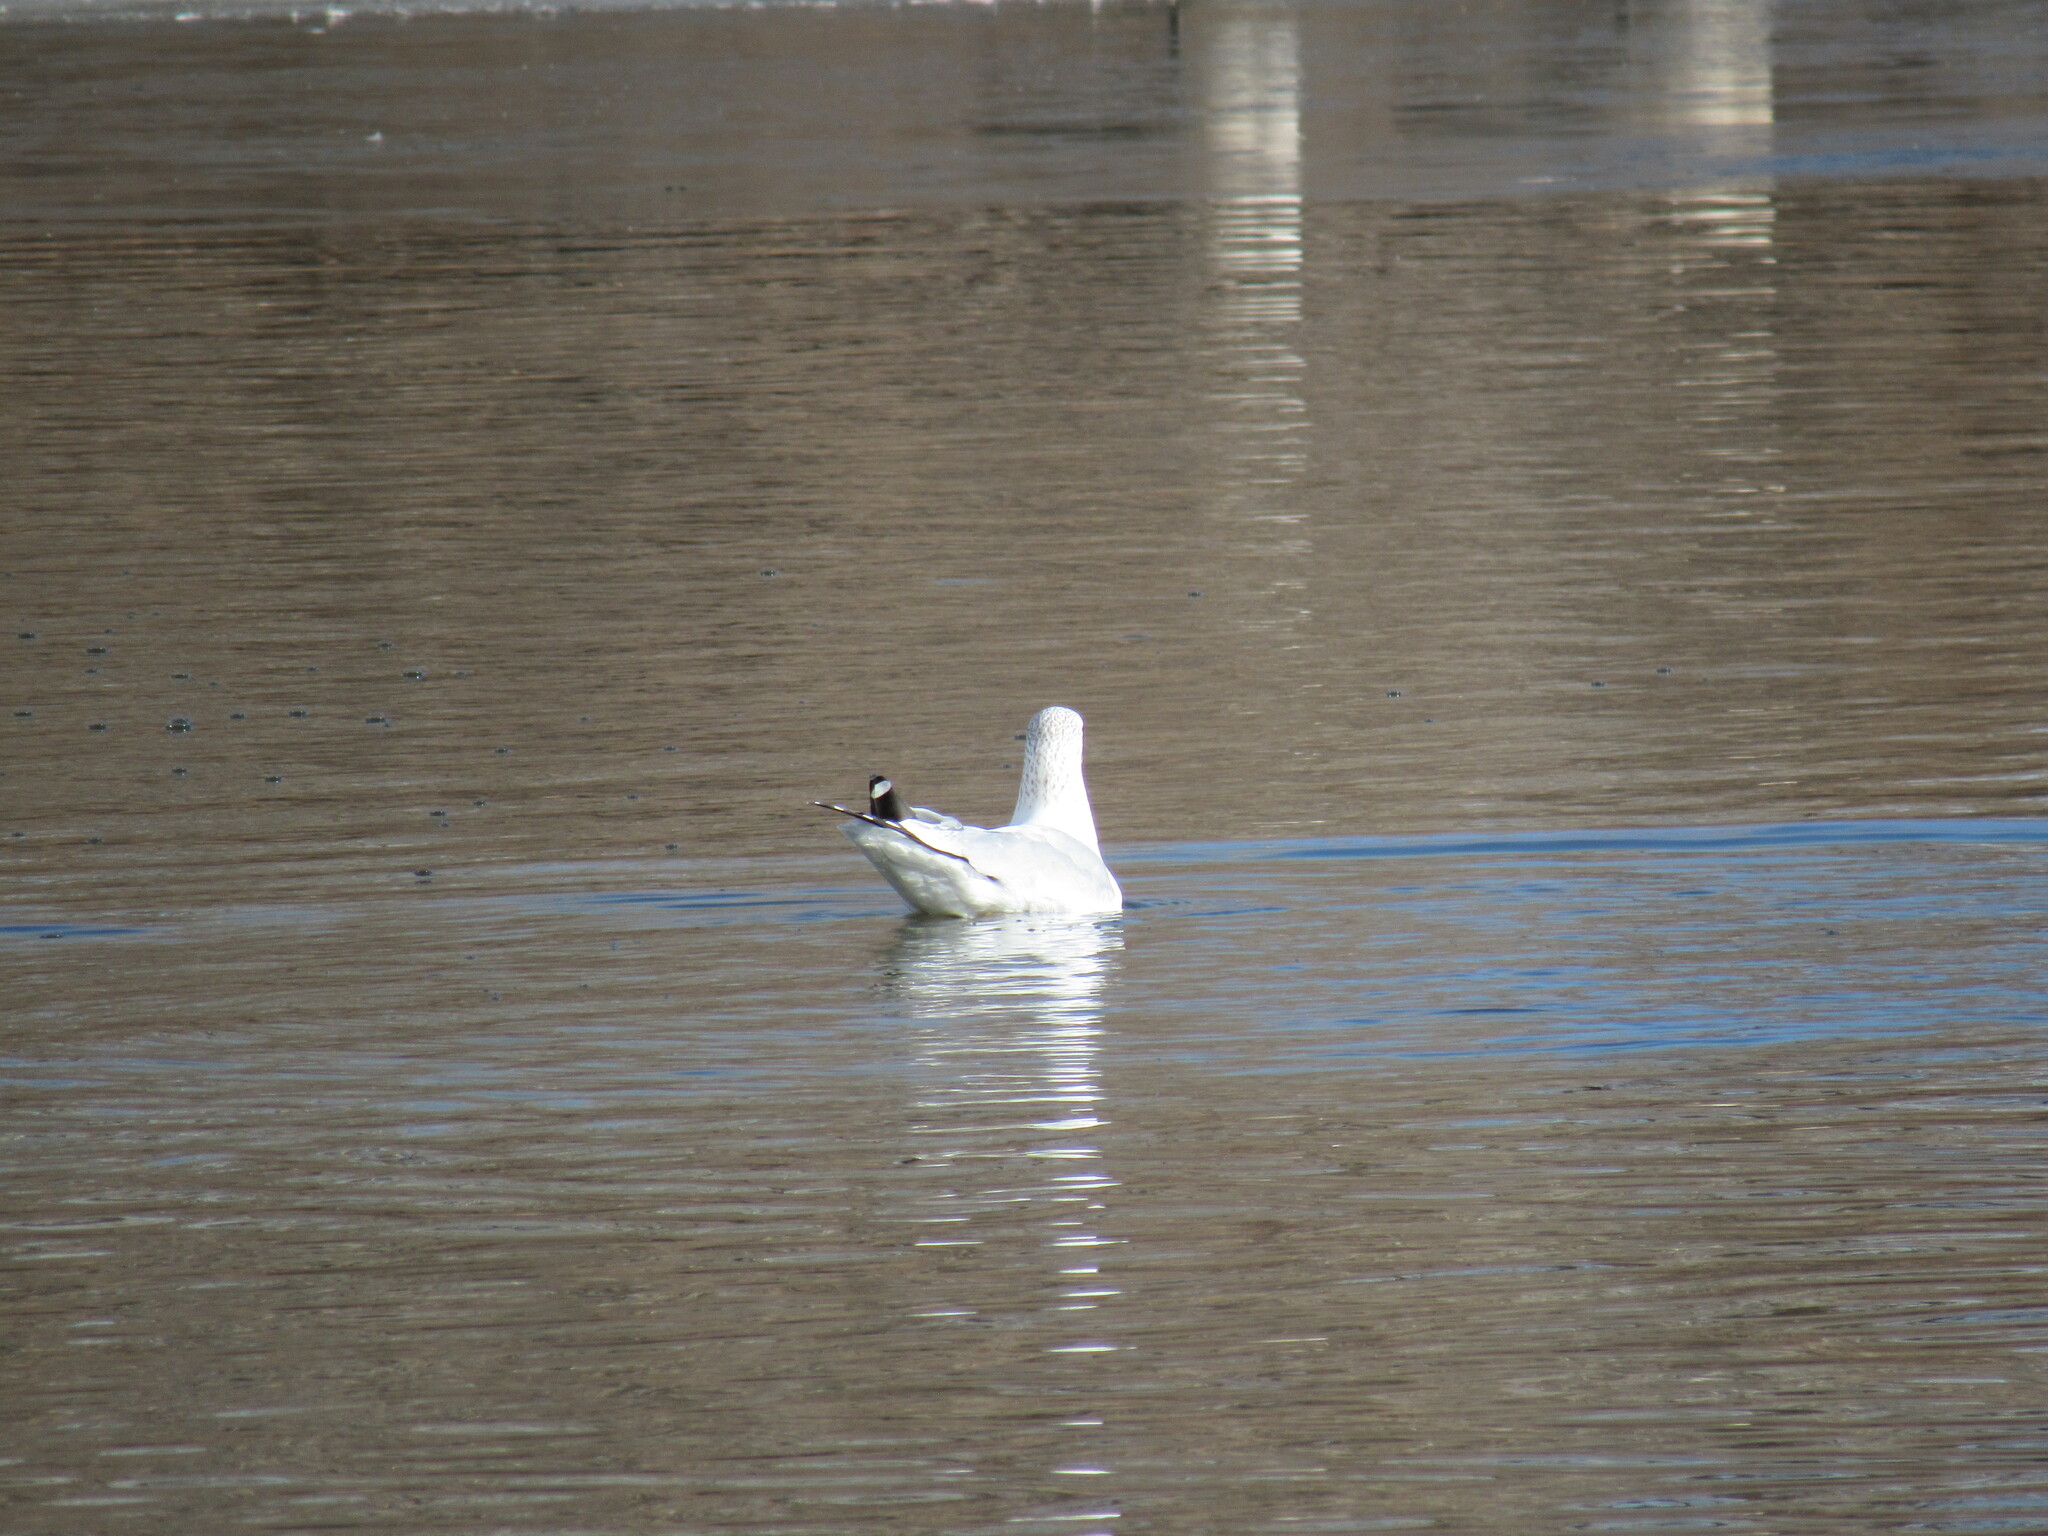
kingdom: Animalia
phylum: Chordata
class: Aves
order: Charadriiformes
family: Laridae
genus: Larus
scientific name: Larus delawarensis
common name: Ring-billed gull
